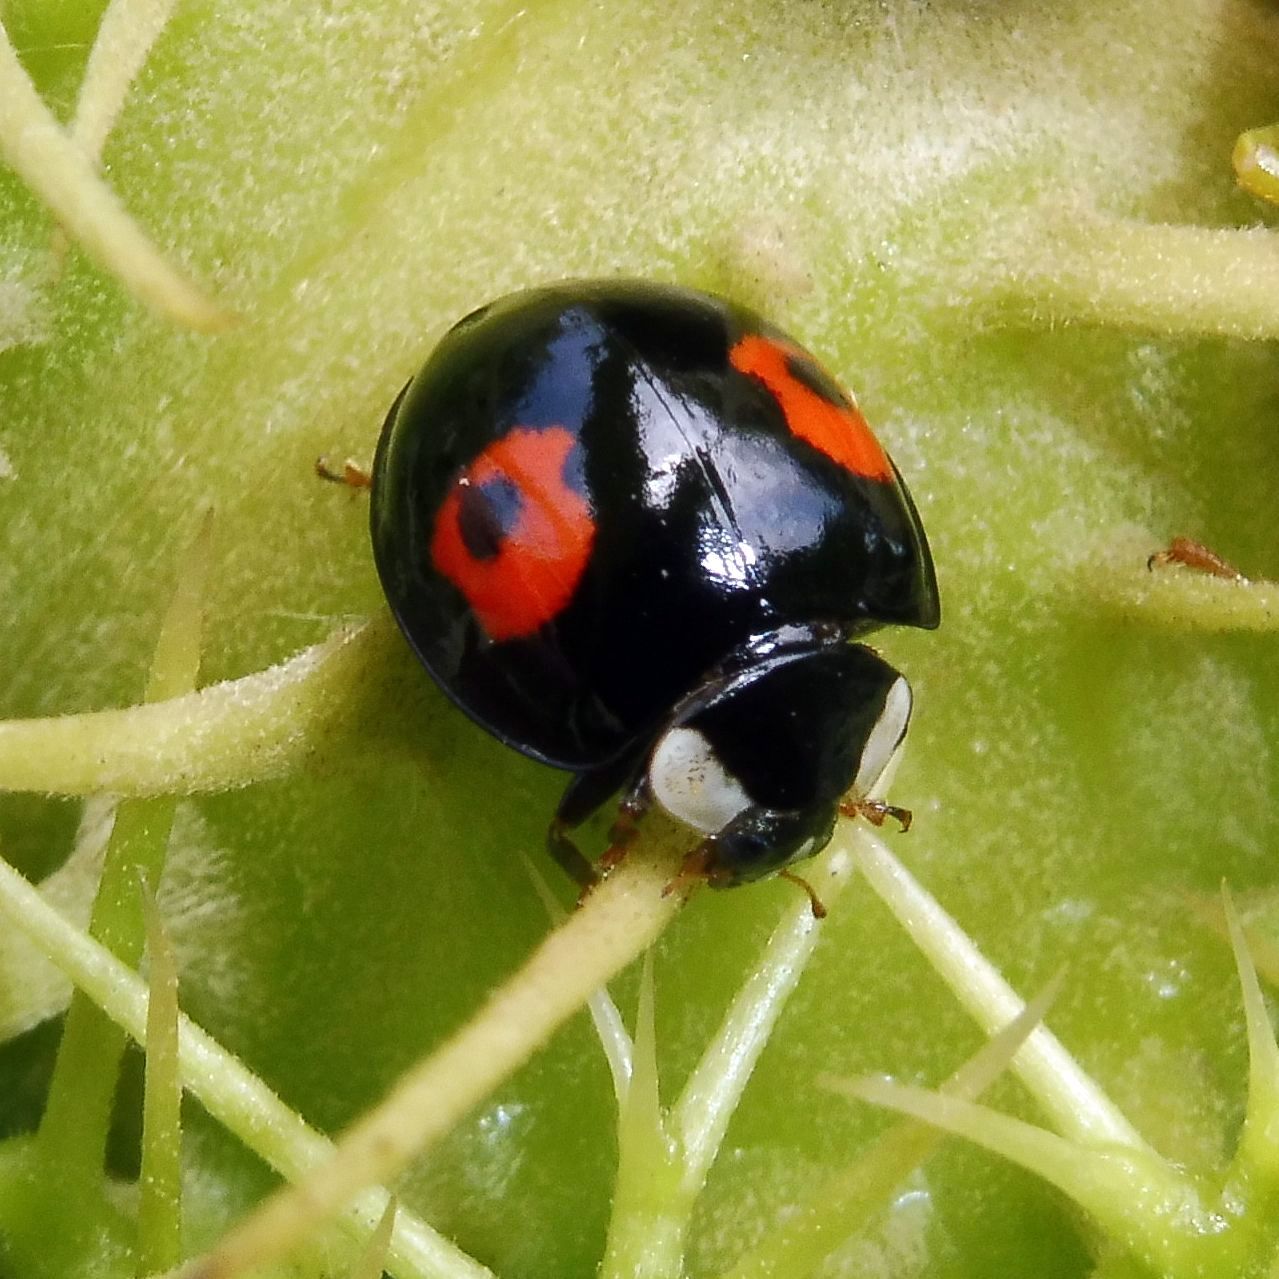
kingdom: Animalia
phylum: Arthropoda
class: Insecta
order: Coleoptera
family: Coccinellidae
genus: Harmonia
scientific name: Harmonia axyridis
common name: Harlequin ladybird
